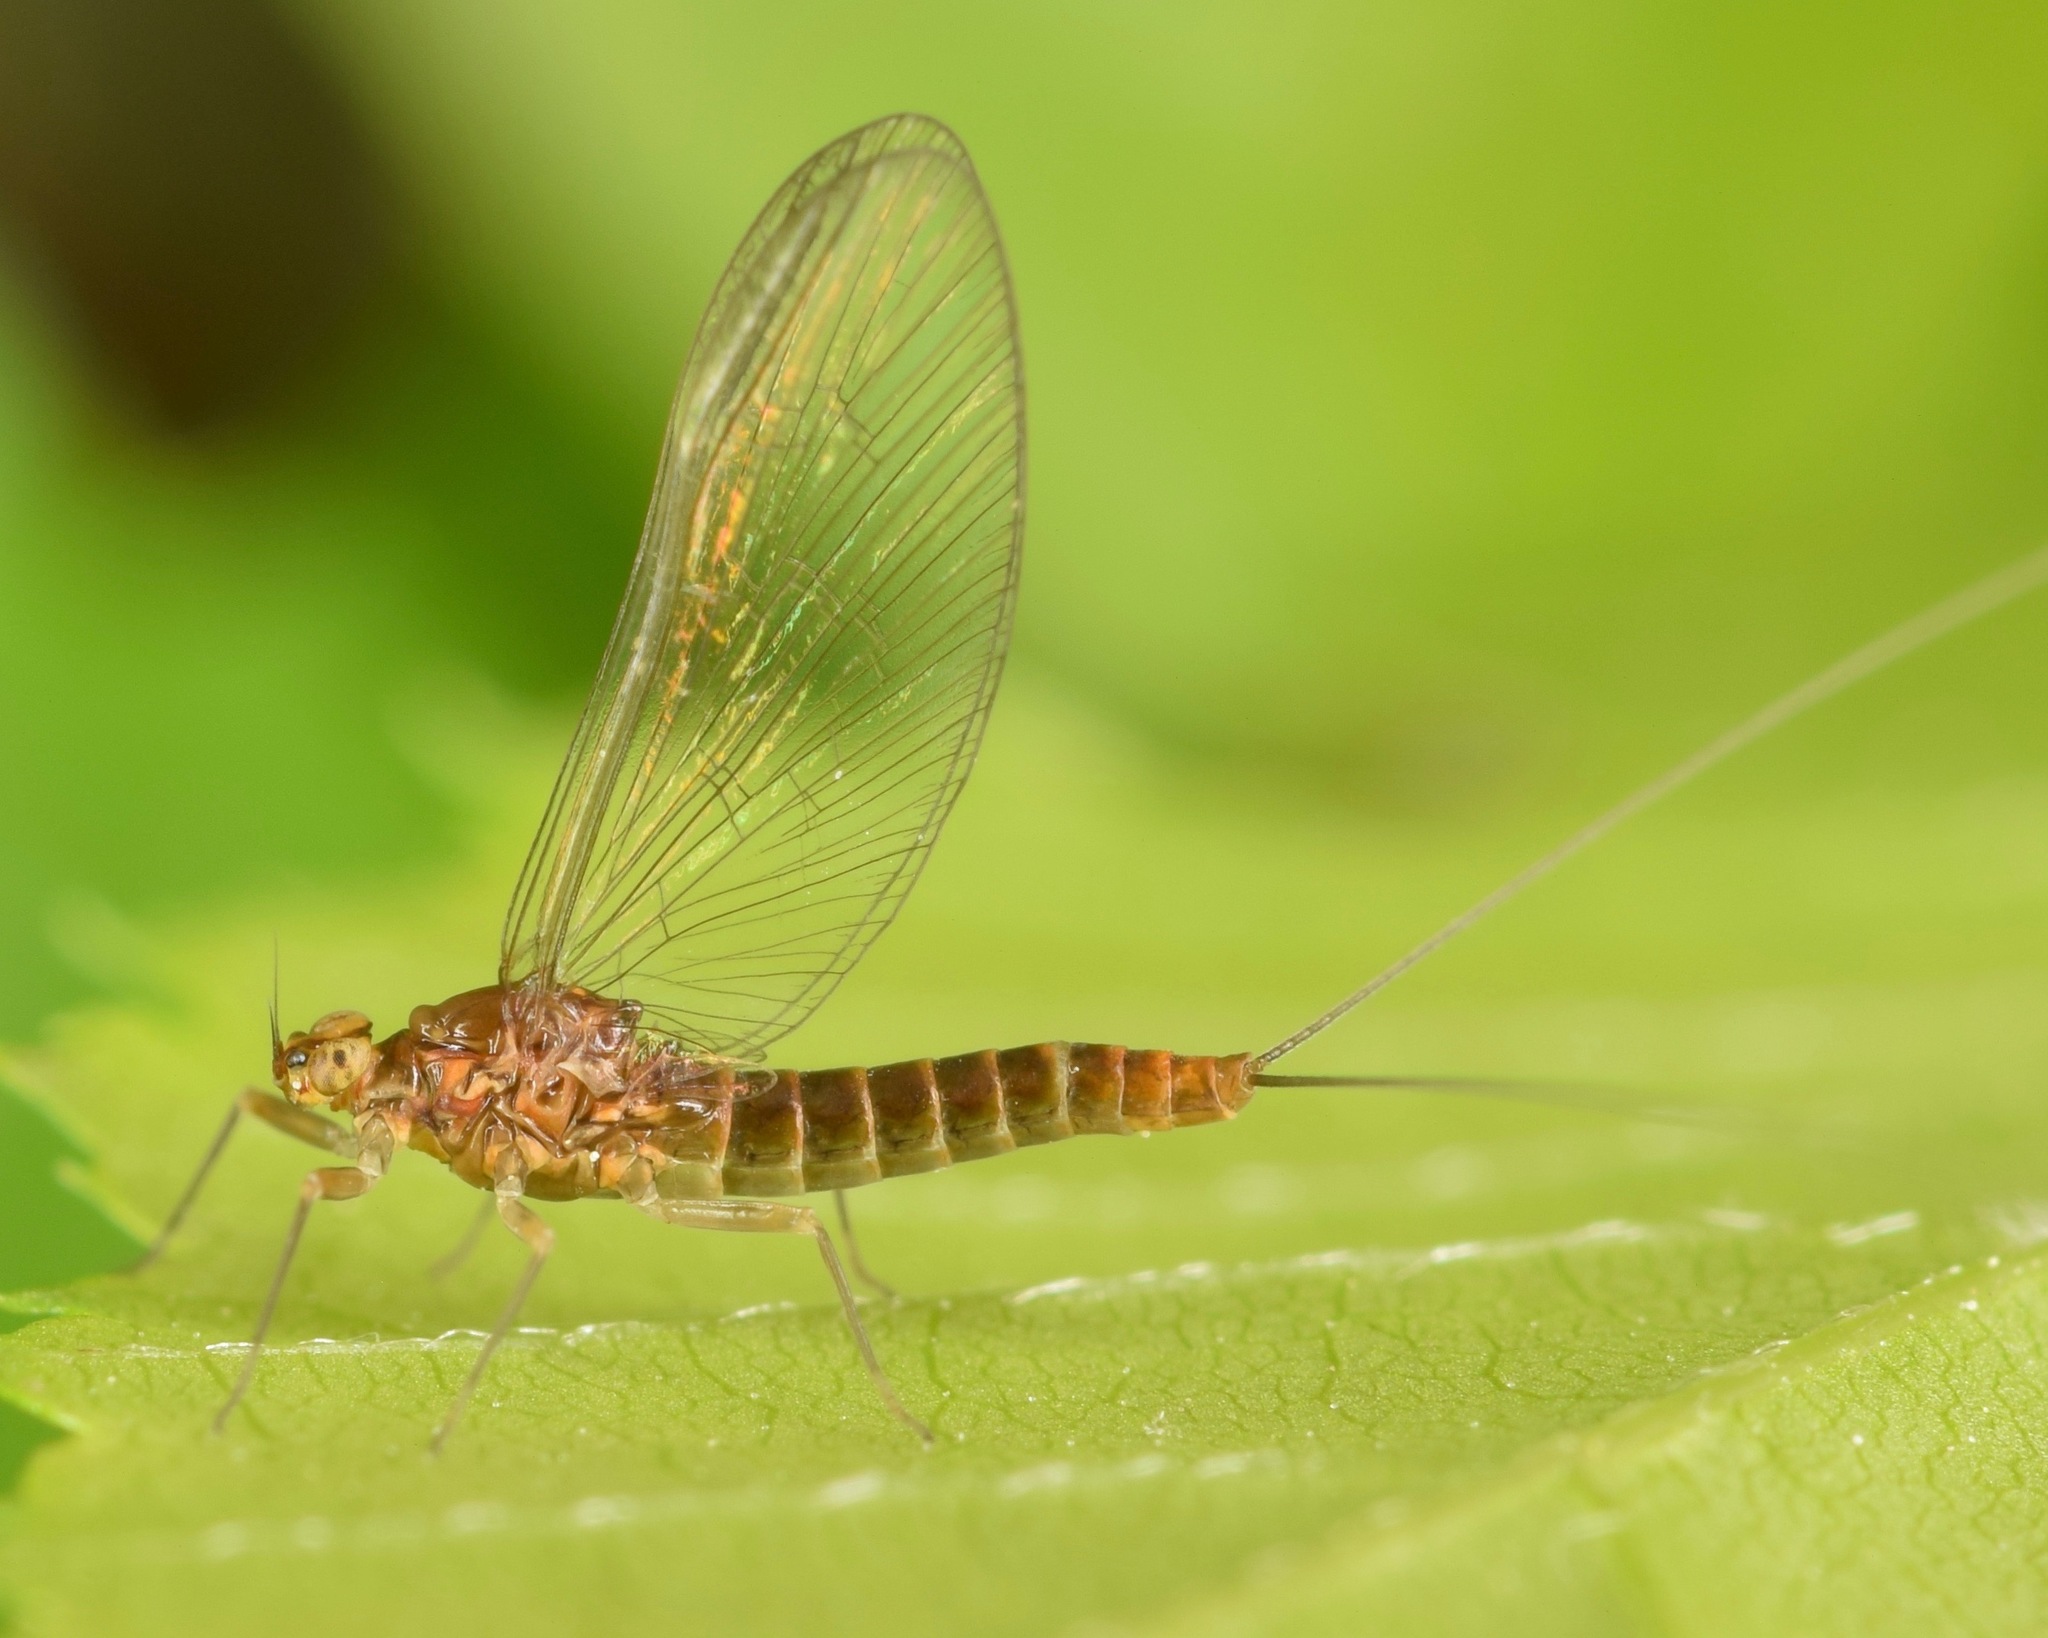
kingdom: Animalia
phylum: Arthropoda
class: Insecta
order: Ephemeroptera
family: Baetidae
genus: Acentrella
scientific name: Acentrella turbida
